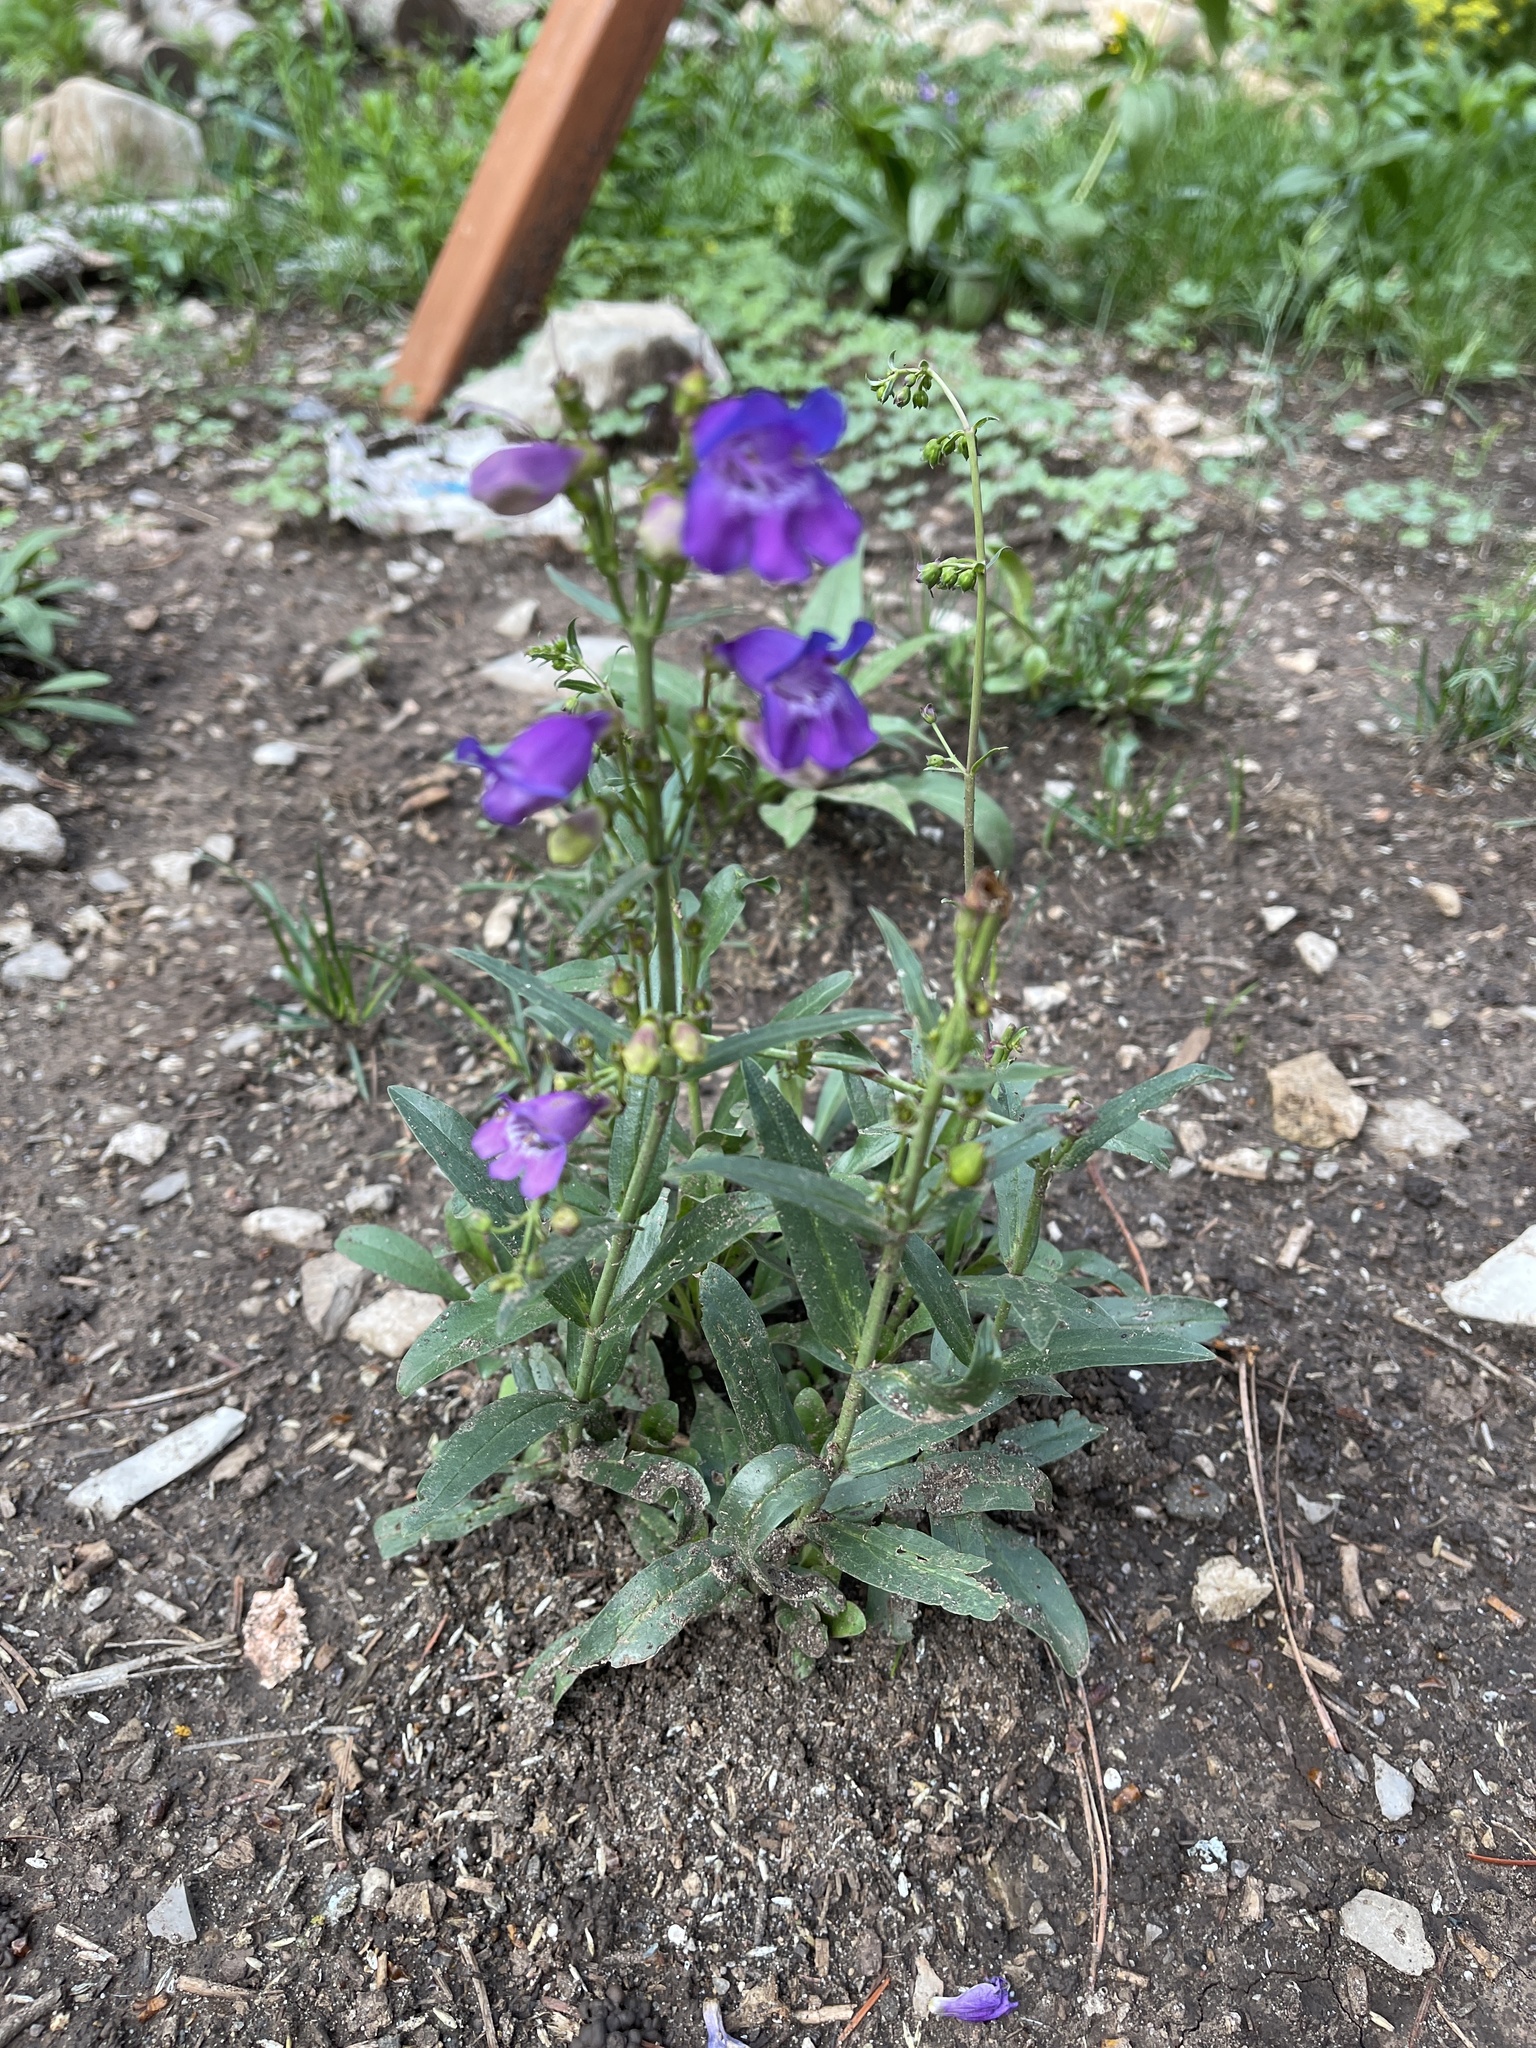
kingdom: Plantae
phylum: Tracheophyta
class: Magnoliopsida
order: Lamiales
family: Plantaginaceae
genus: Penstemon
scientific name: Penstemon neomexicanus
